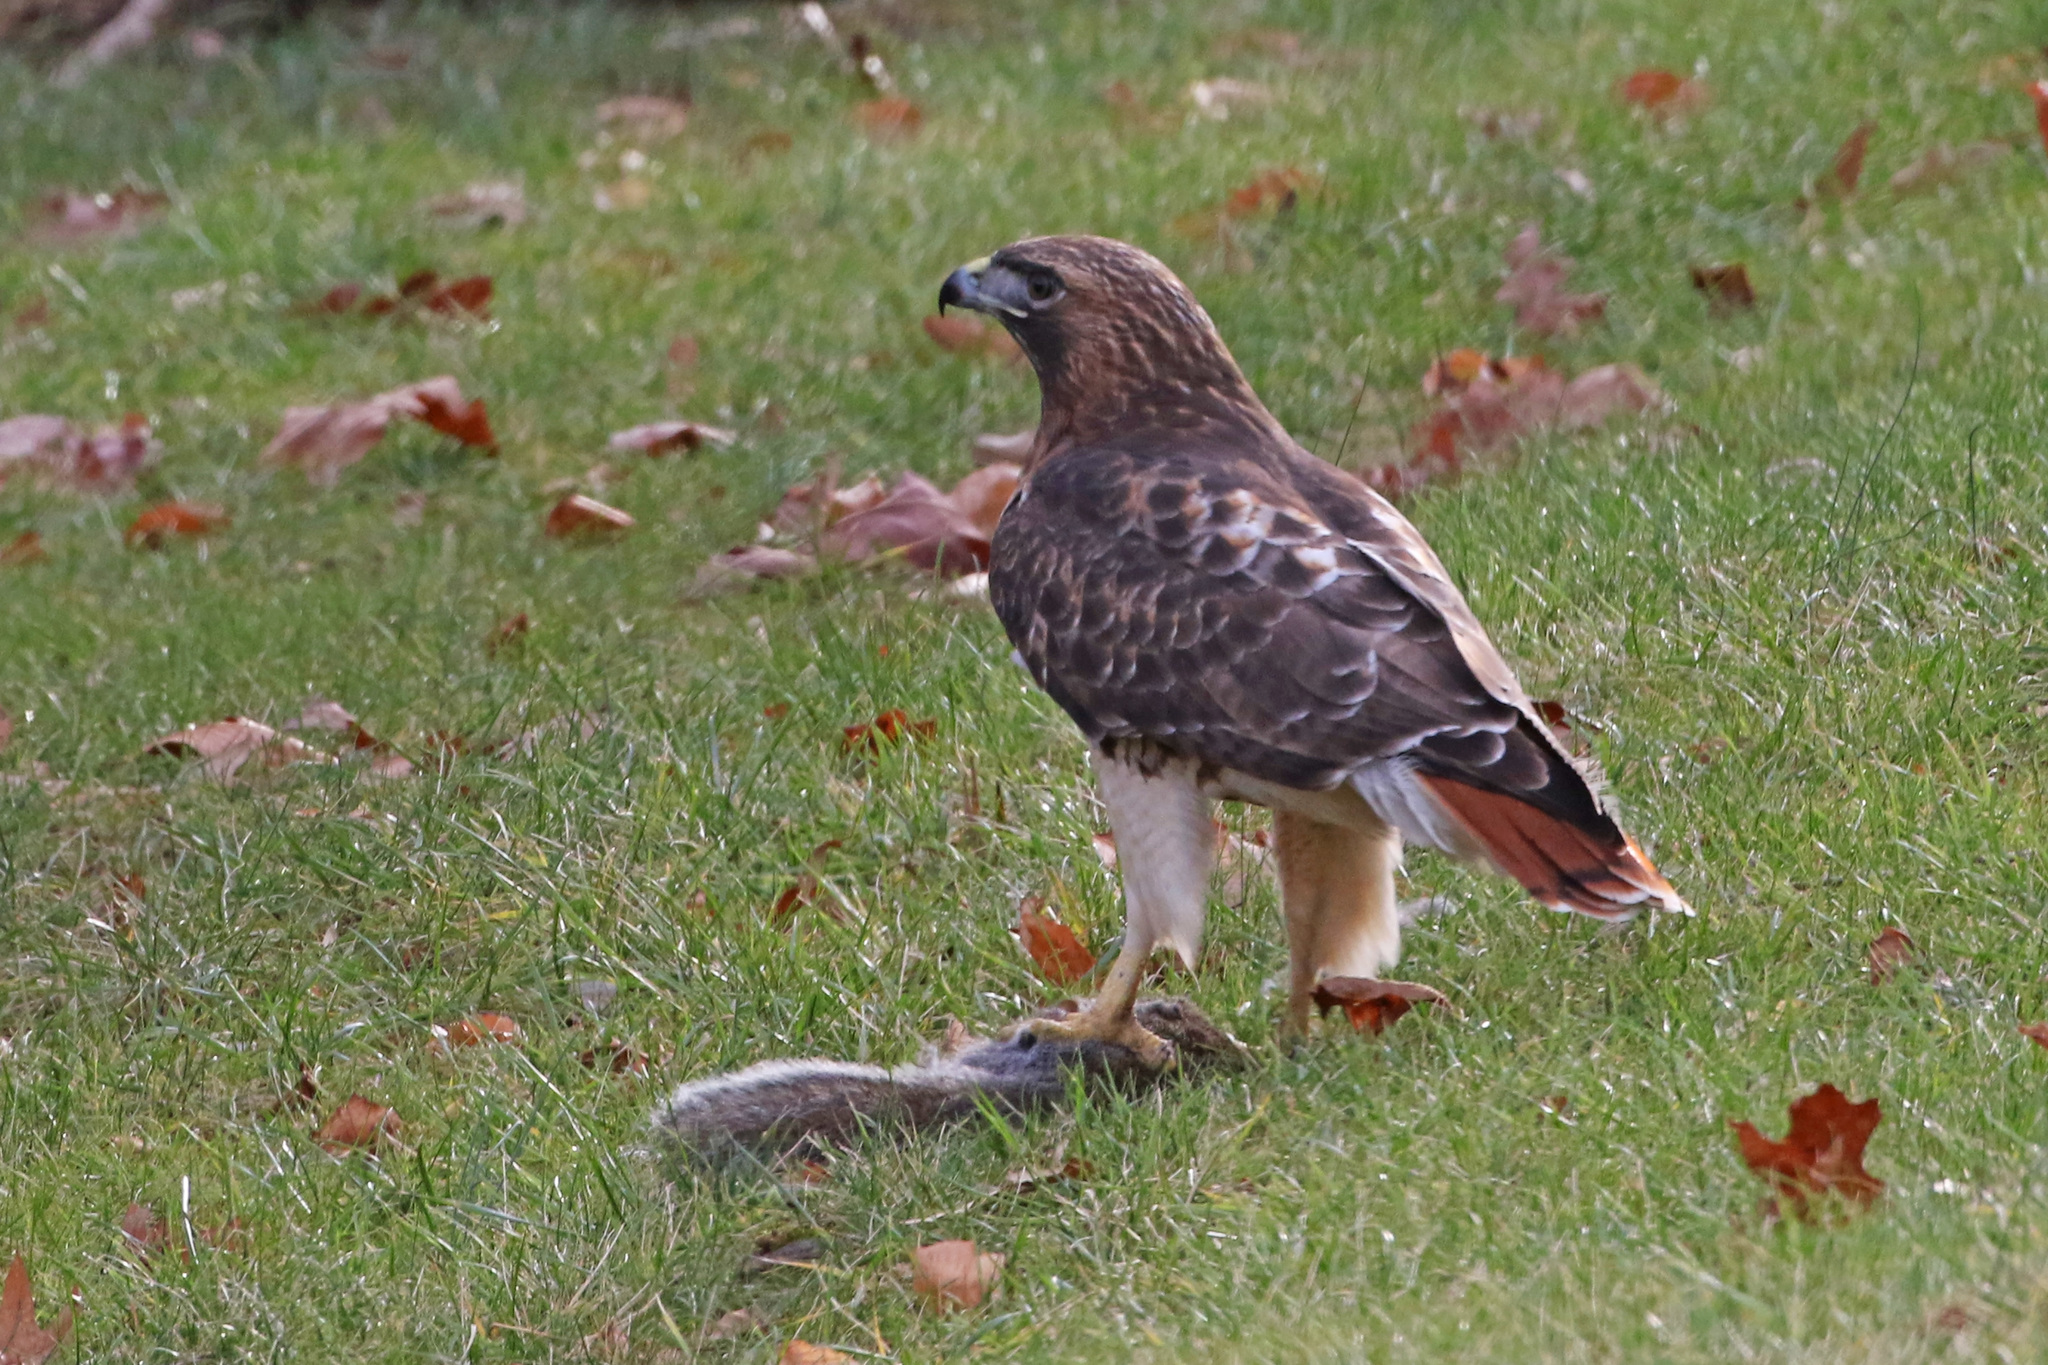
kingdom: Animalia
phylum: Chordata
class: Aves
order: Accipitriformes
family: Accipitridae
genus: Buteo
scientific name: Buteo jamaicensis
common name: Red-tailed hawk
